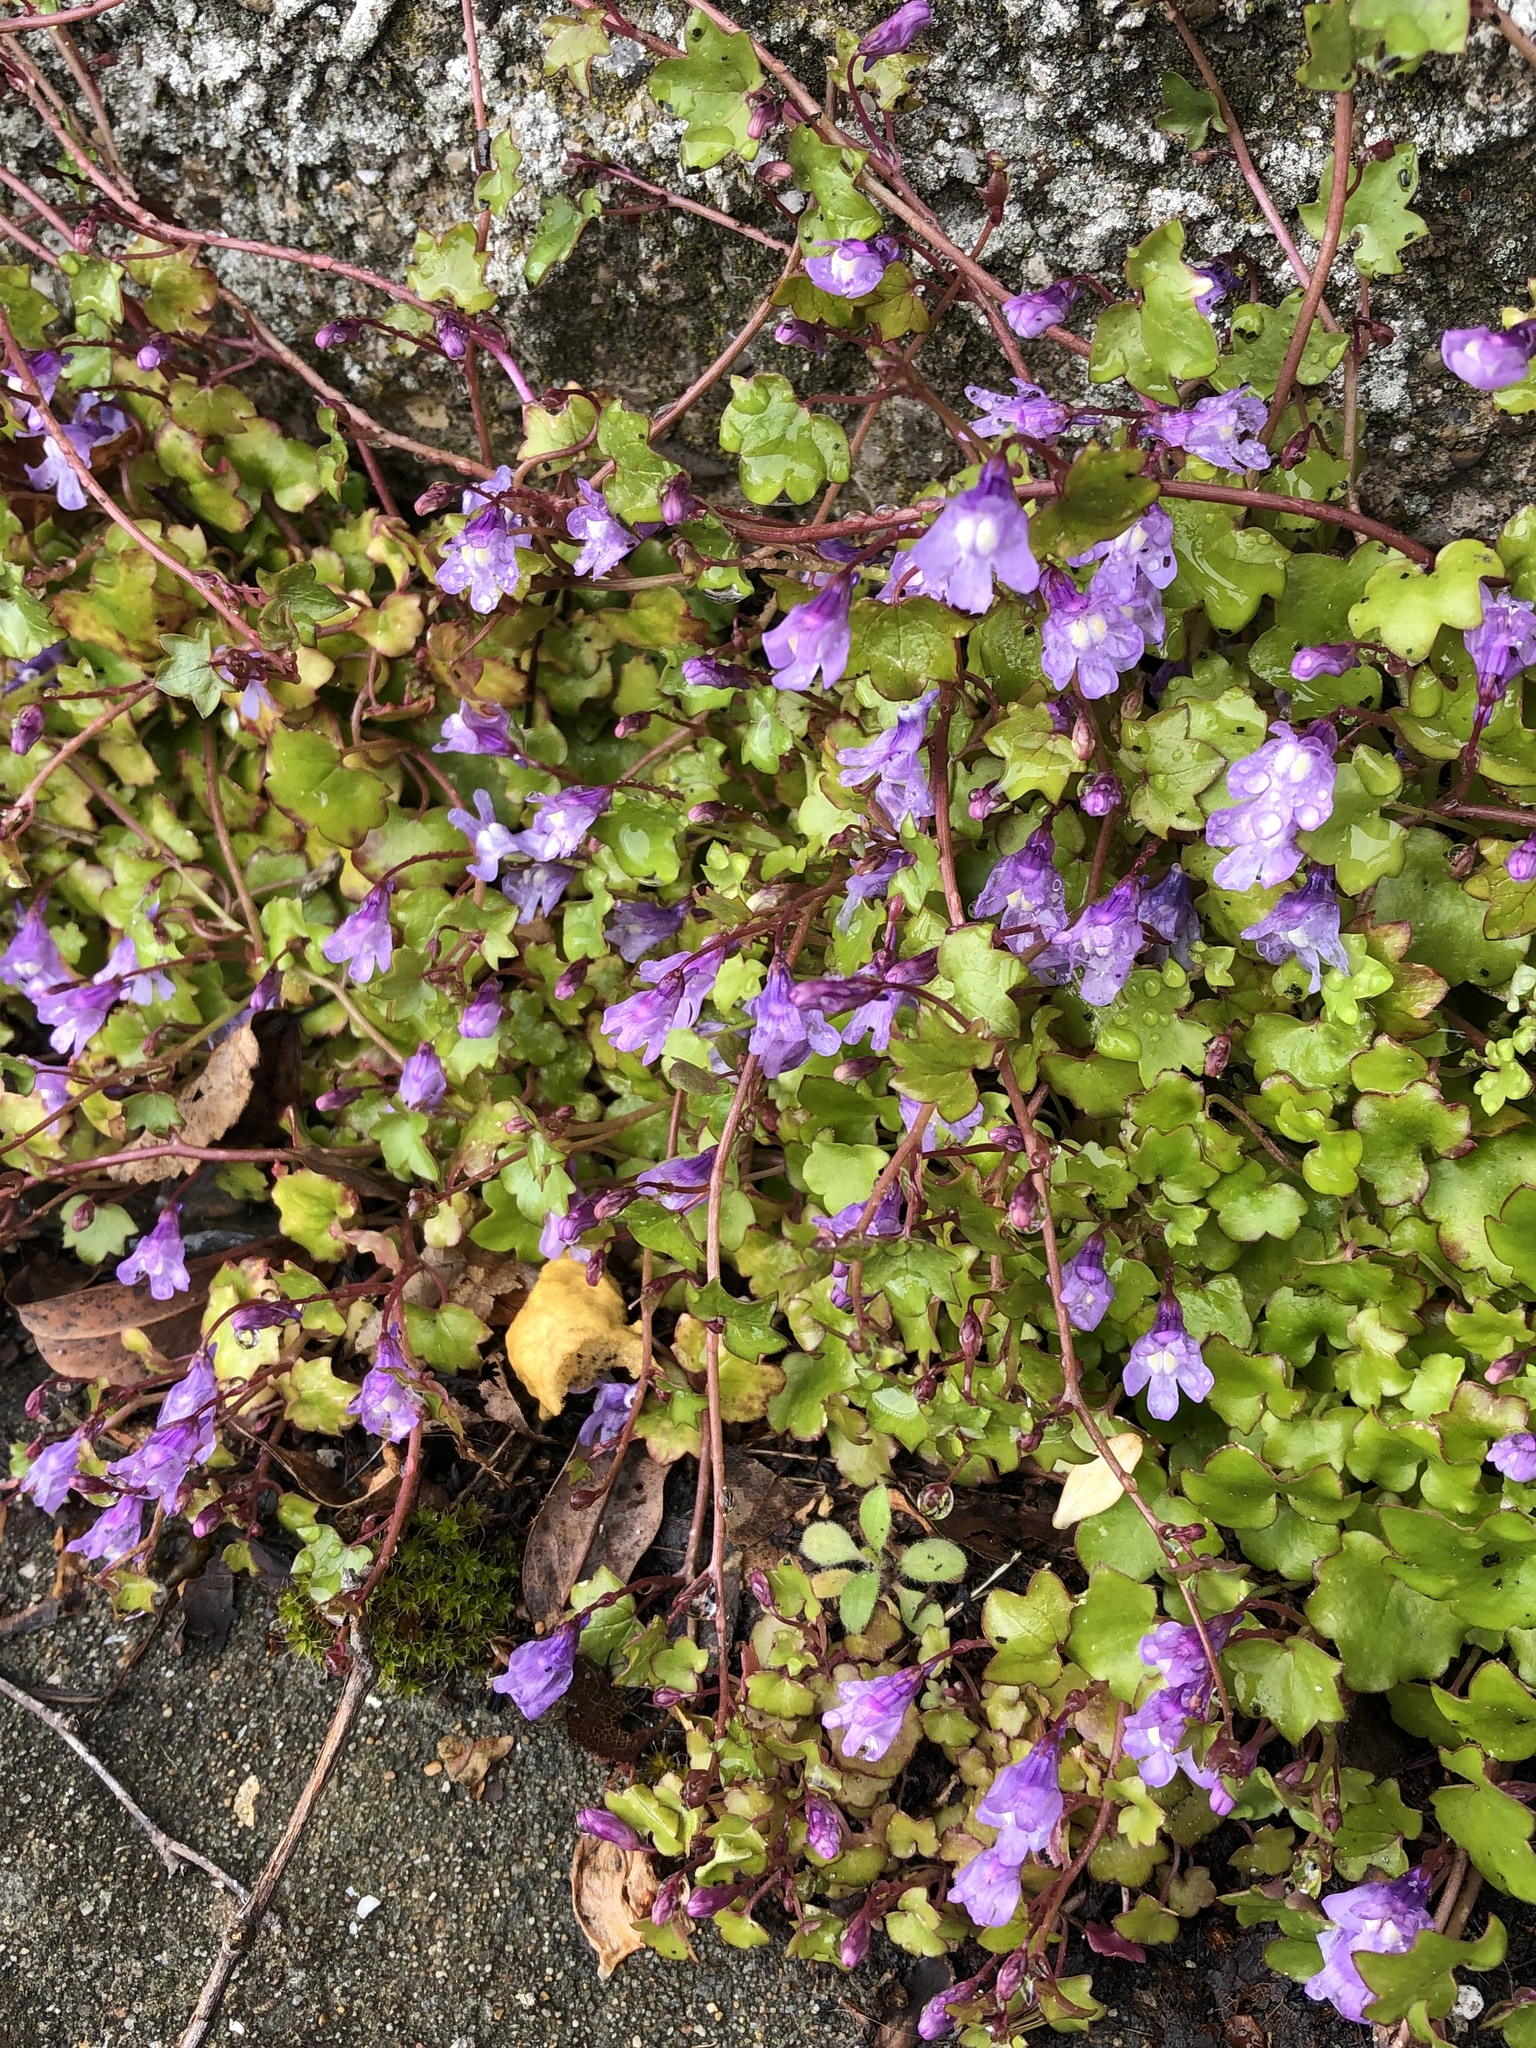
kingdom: Plantae
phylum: Tracheophyta
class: Magnoliopsida
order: Lamiales
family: Plantaginaceae
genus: Cymbalaria
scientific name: Cymbalaria muralis
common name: Ivy-leaved toadflax
